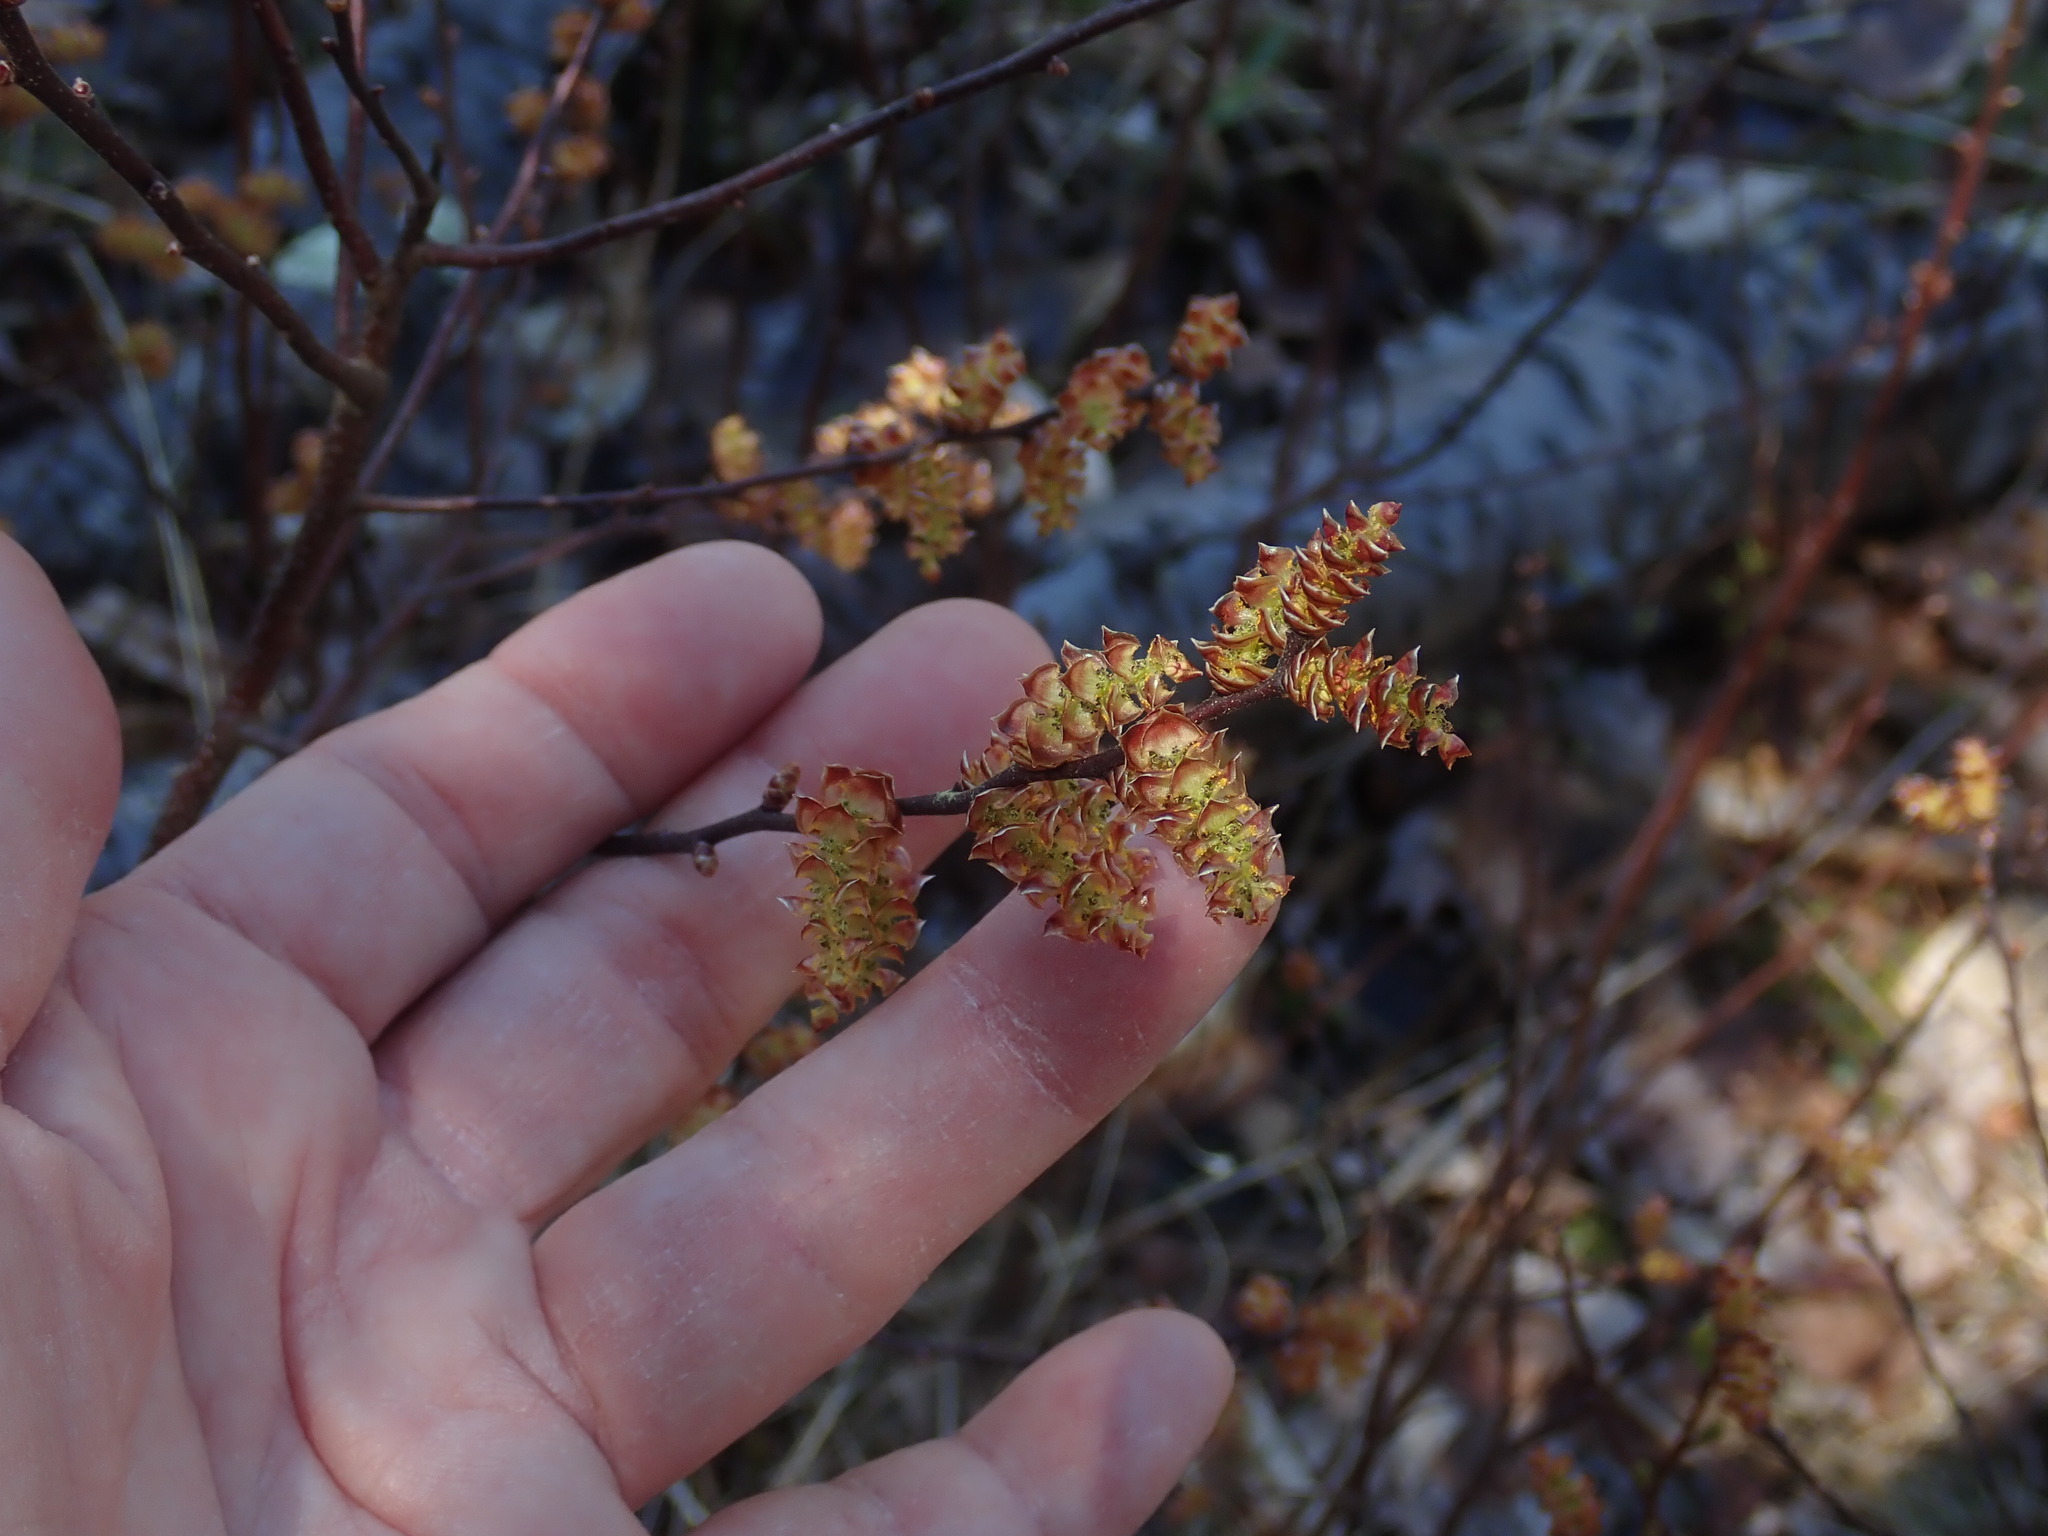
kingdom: Plantae
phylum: Tracheophyta
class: Magnoliopsida
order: Fagales
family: Myricaceae
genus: Myrica
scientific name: Myrica gale
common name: Sweet gale
